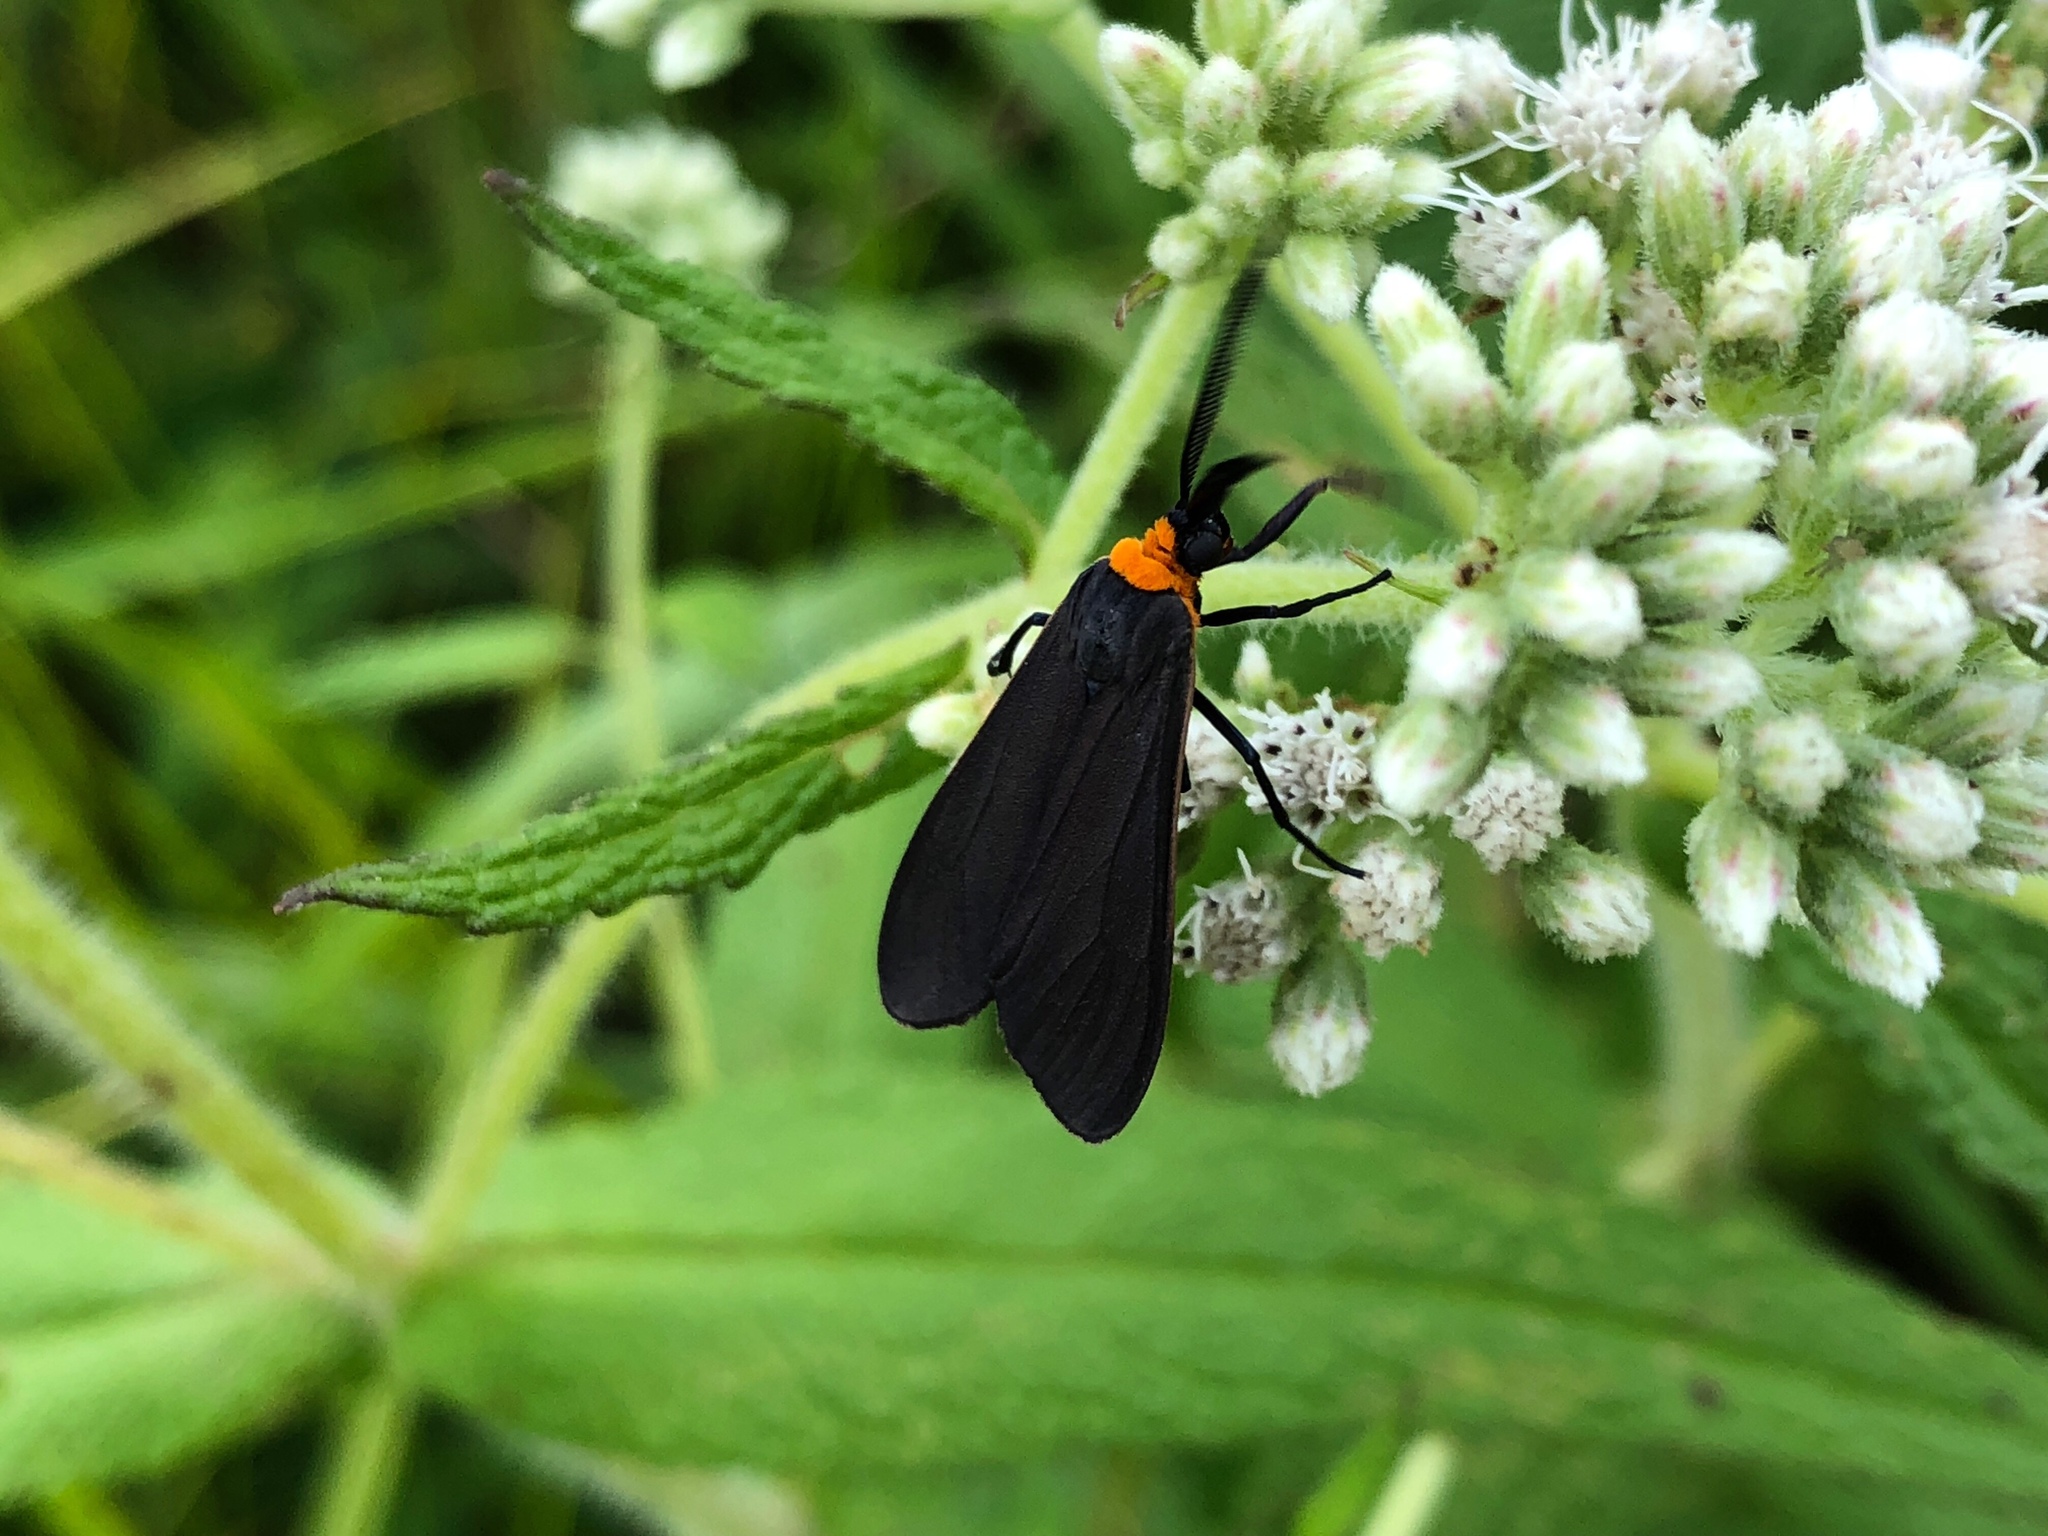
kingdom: Animalia
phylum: Arthropoda
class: Insecta
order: Lepidoptera
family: Erebidae
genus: Cisseps
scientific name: Cisseps fulvicollis
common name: Yellow-collared scape moth
